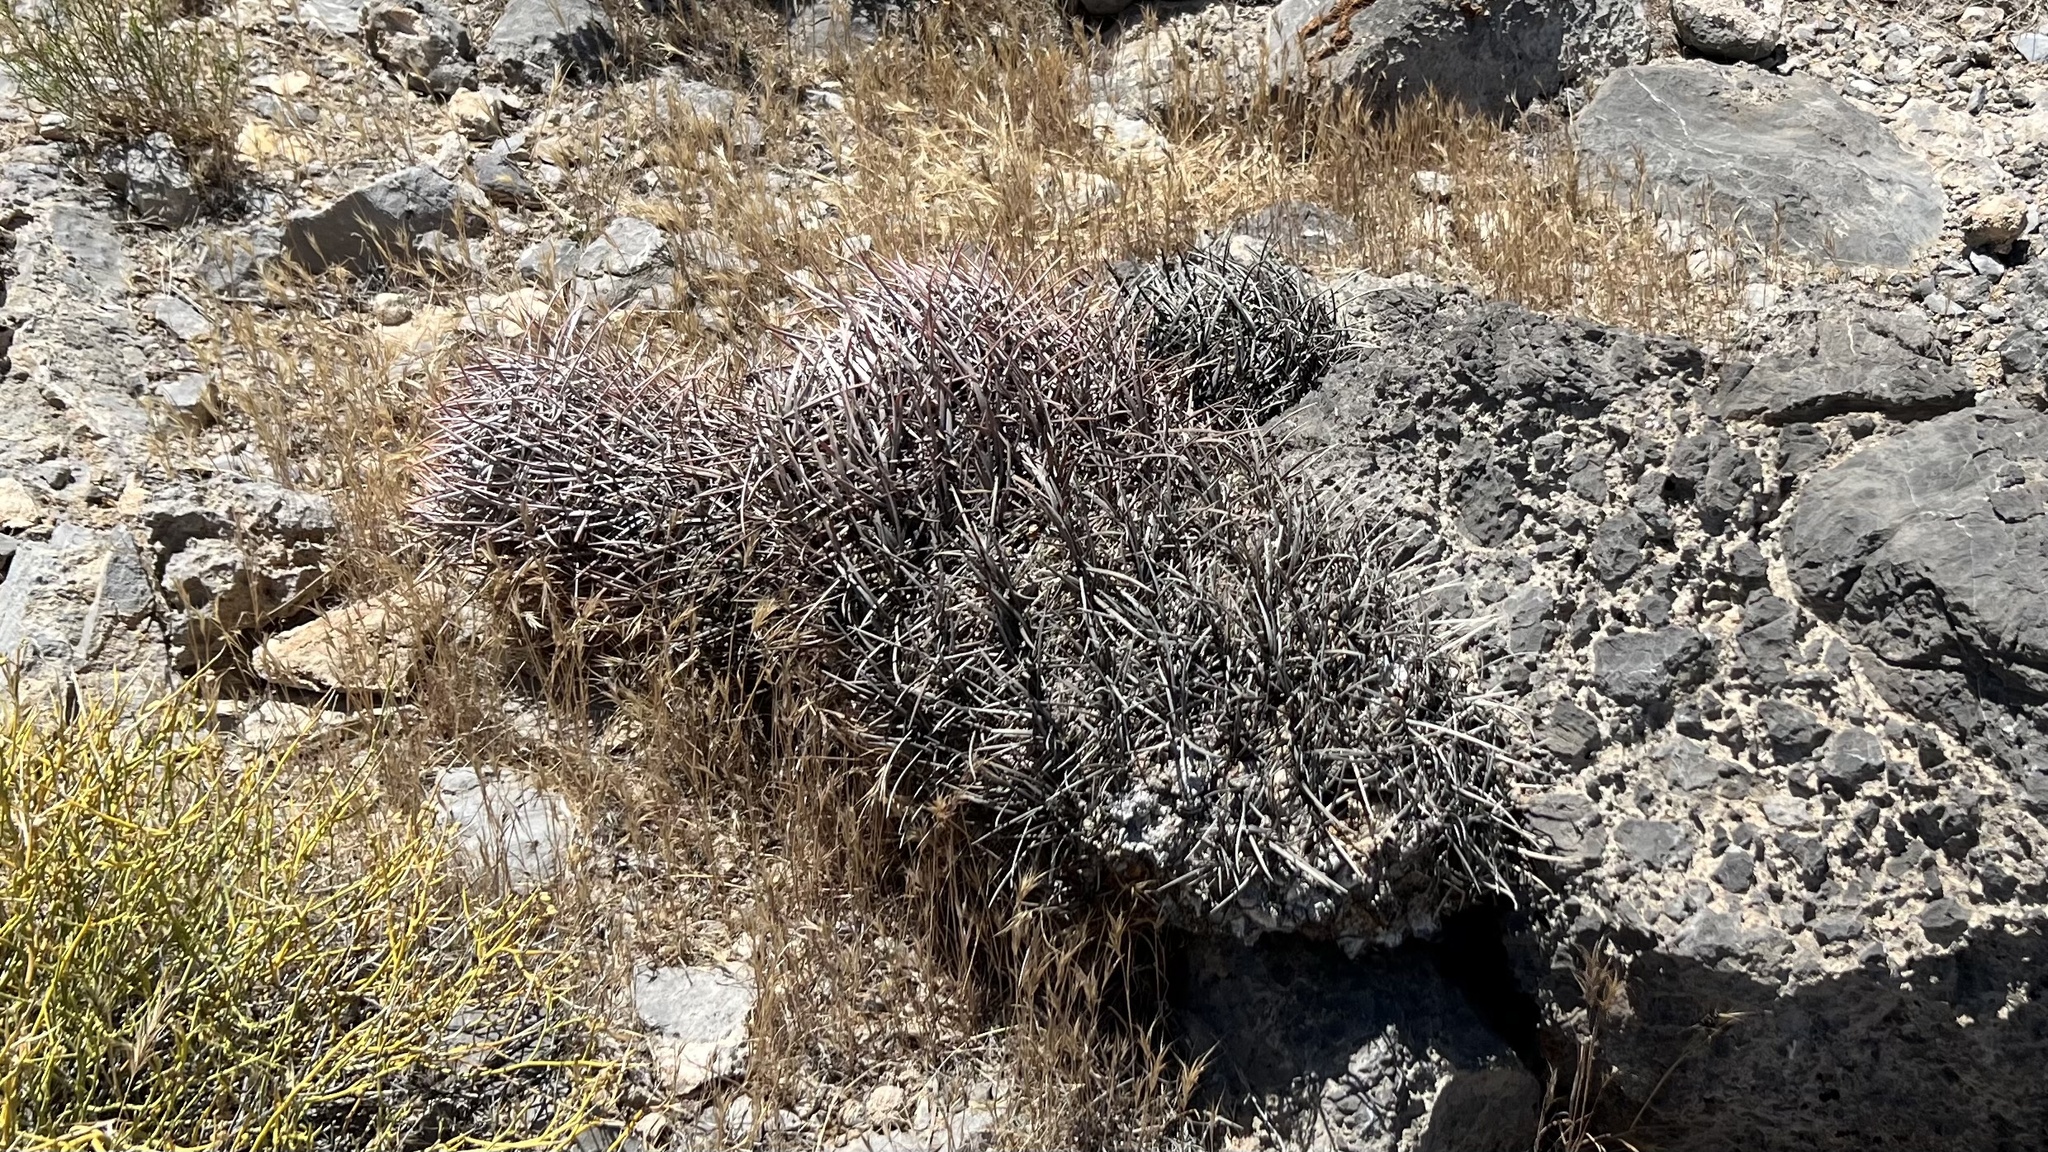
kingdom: Plantae
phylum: Tracheophyta
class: Magnoliopsida
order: Caryophyllales
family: Cactaceae
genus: Echinocactus
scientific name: Echinocactus polycephalus
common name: Cottontop cactus
